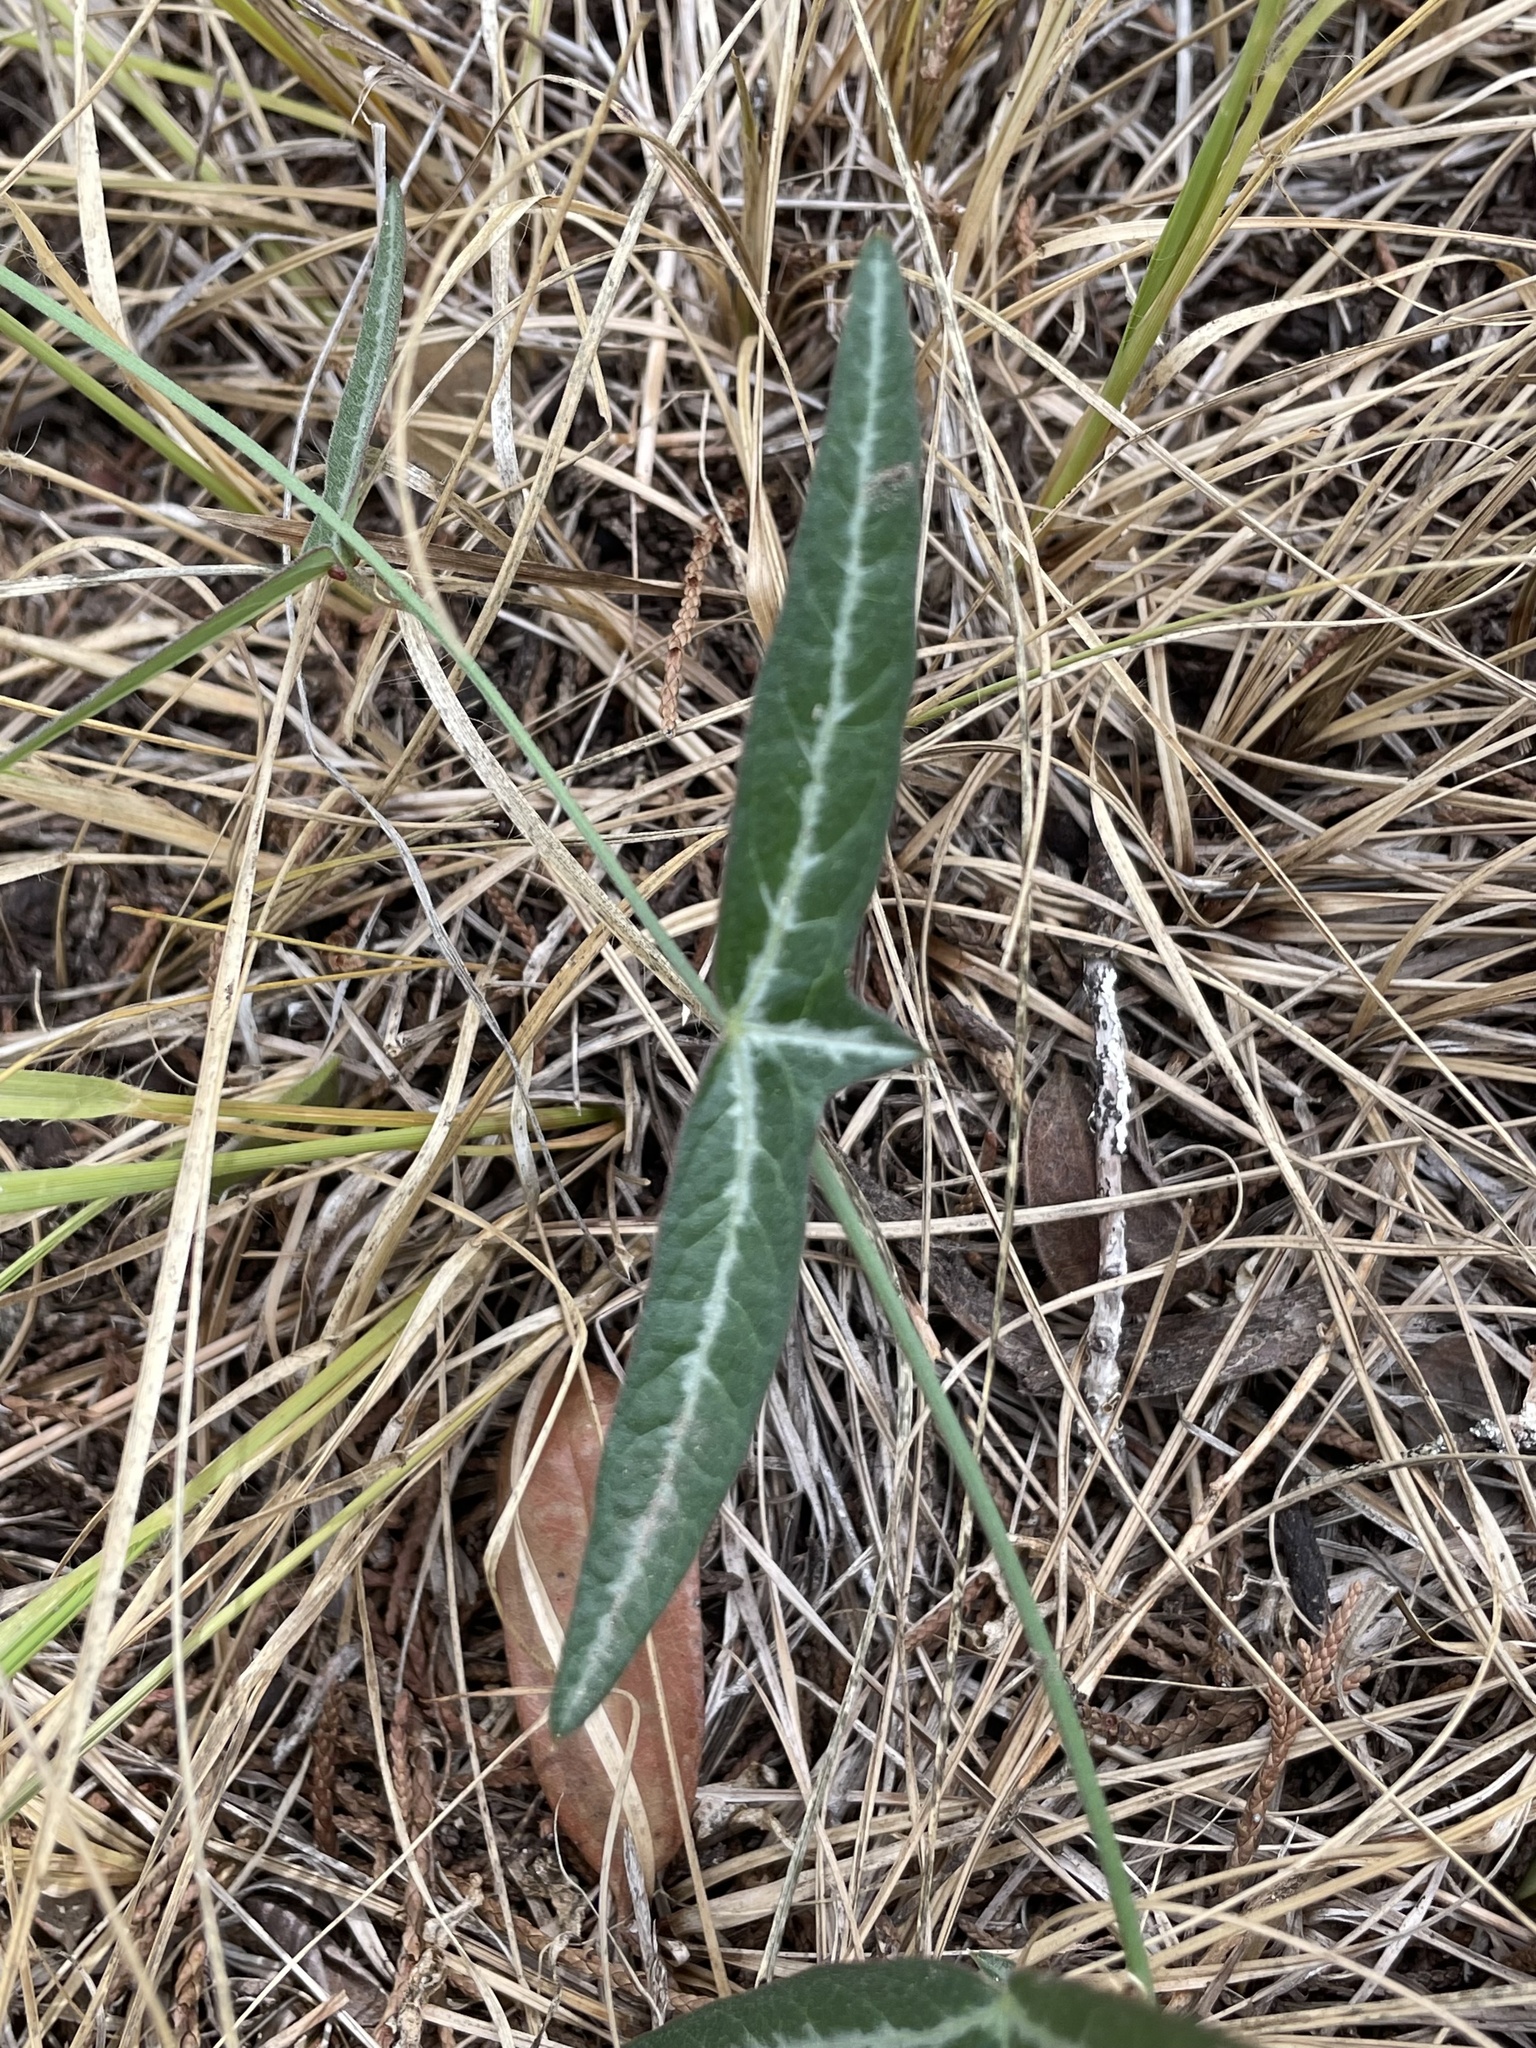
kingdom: Plantae
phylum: Tracheophyta
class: Magnoliopsida
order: Malpighiales
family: Passifloraceae
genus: Passiflora
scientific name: Passiflora tenuiloba
